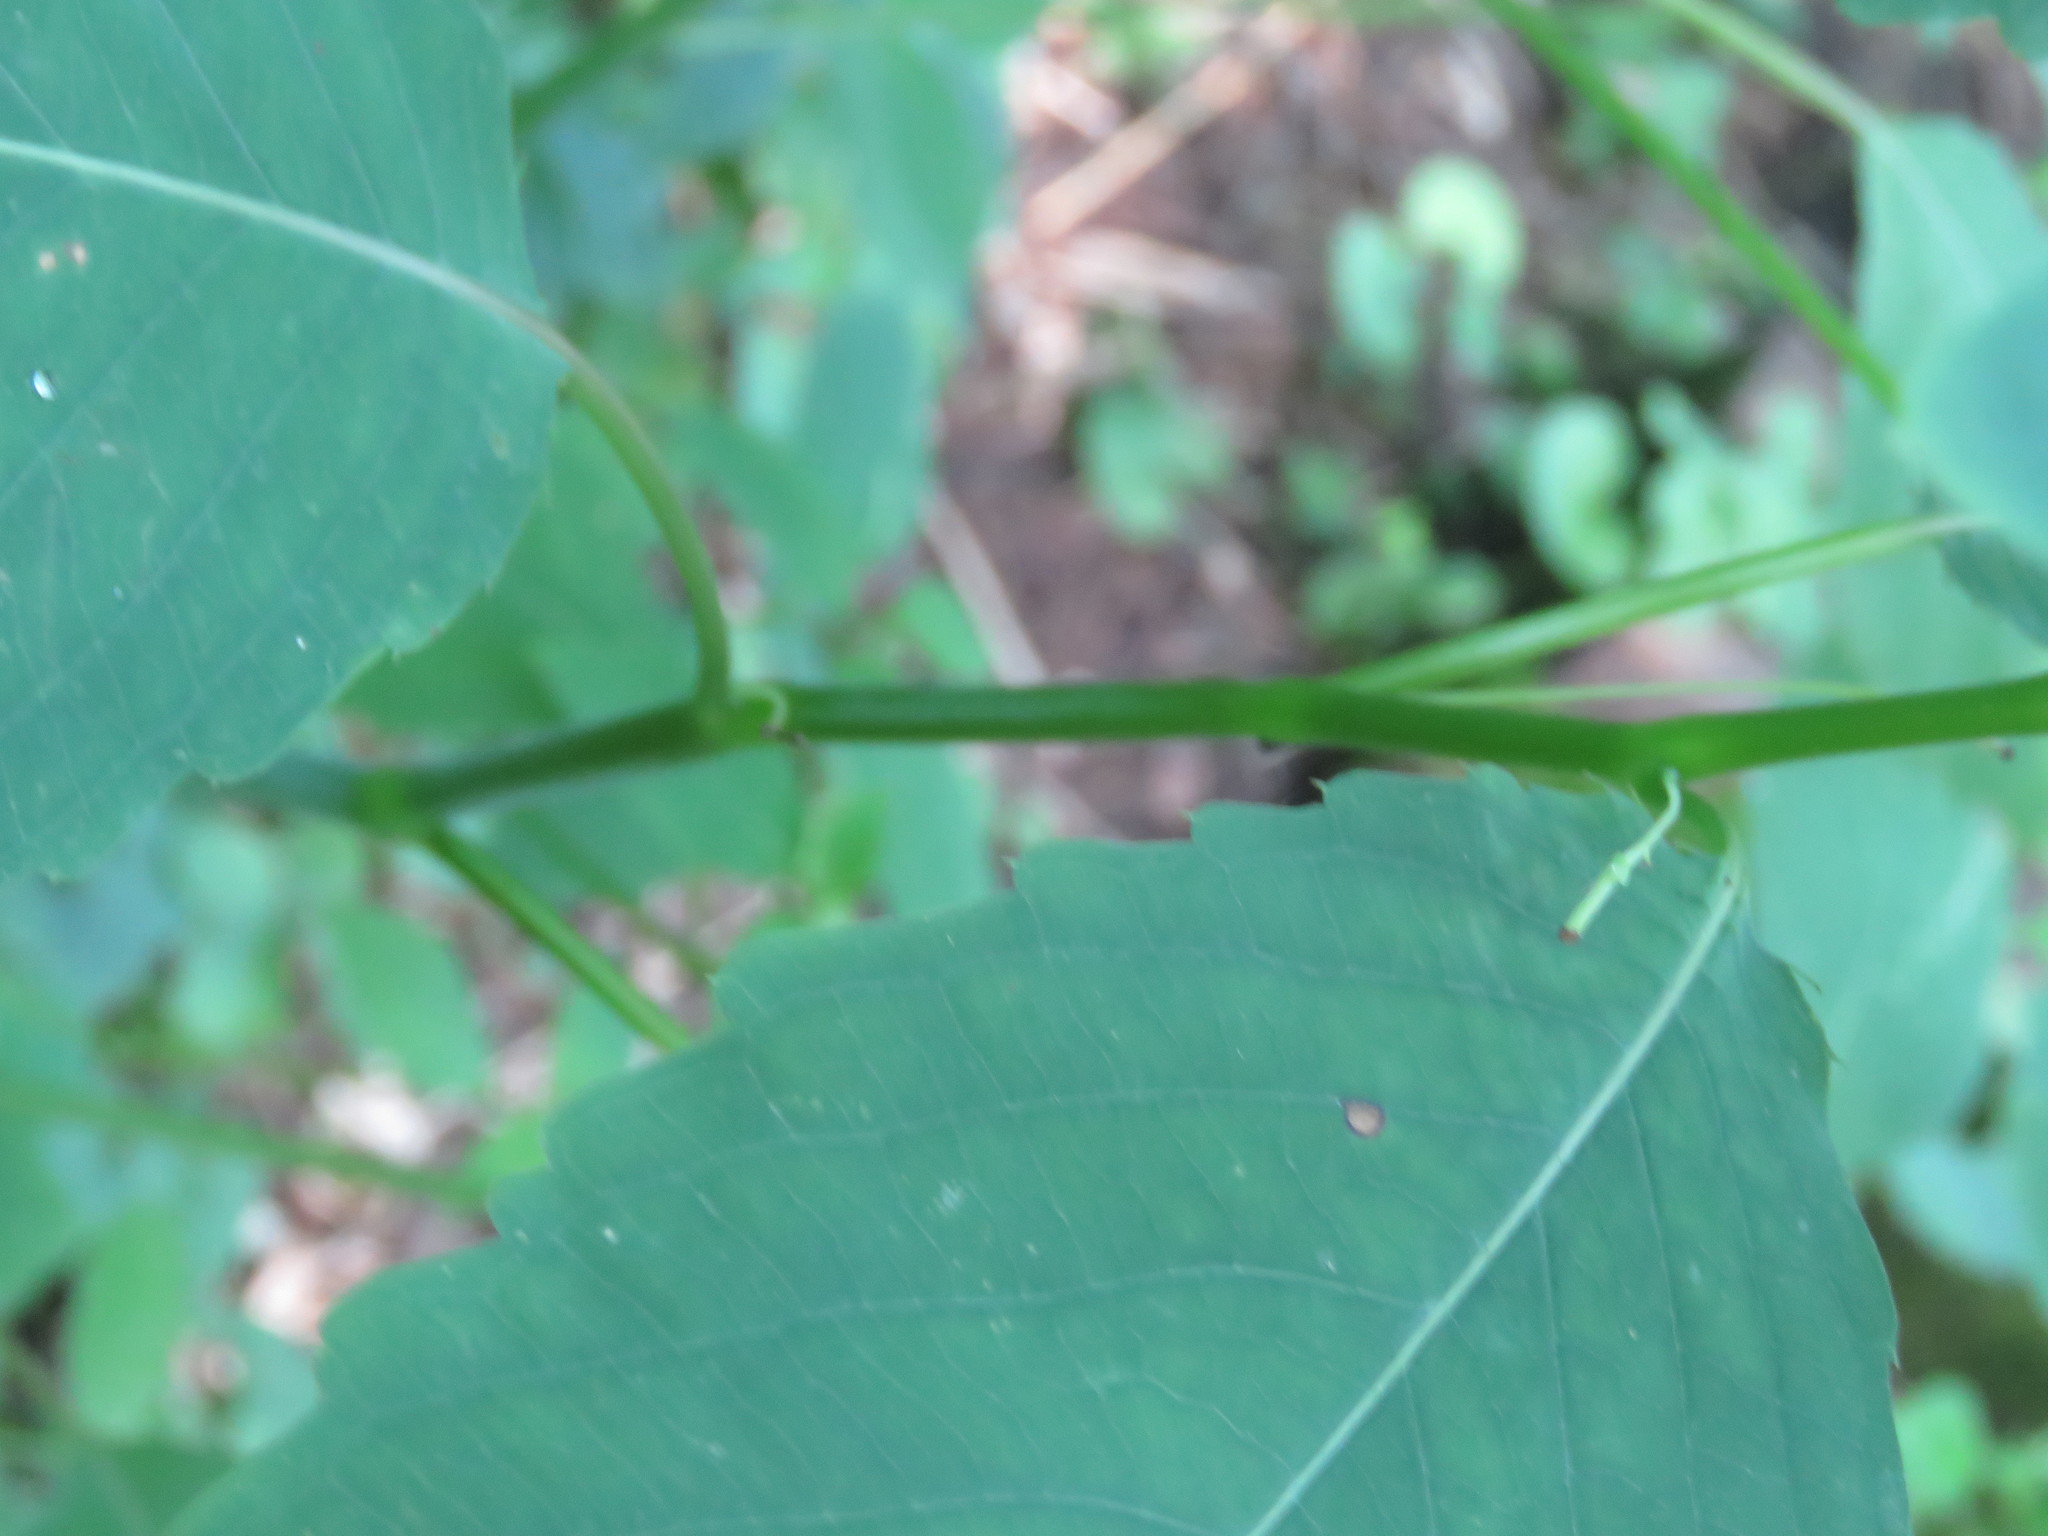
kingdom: Plantae
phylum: Tracheophyta
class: Magnoliopsida
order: Ericales
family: Balsaminaceae
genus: Impatiens
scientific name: Impatiens pallida
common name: Pale snapweed
